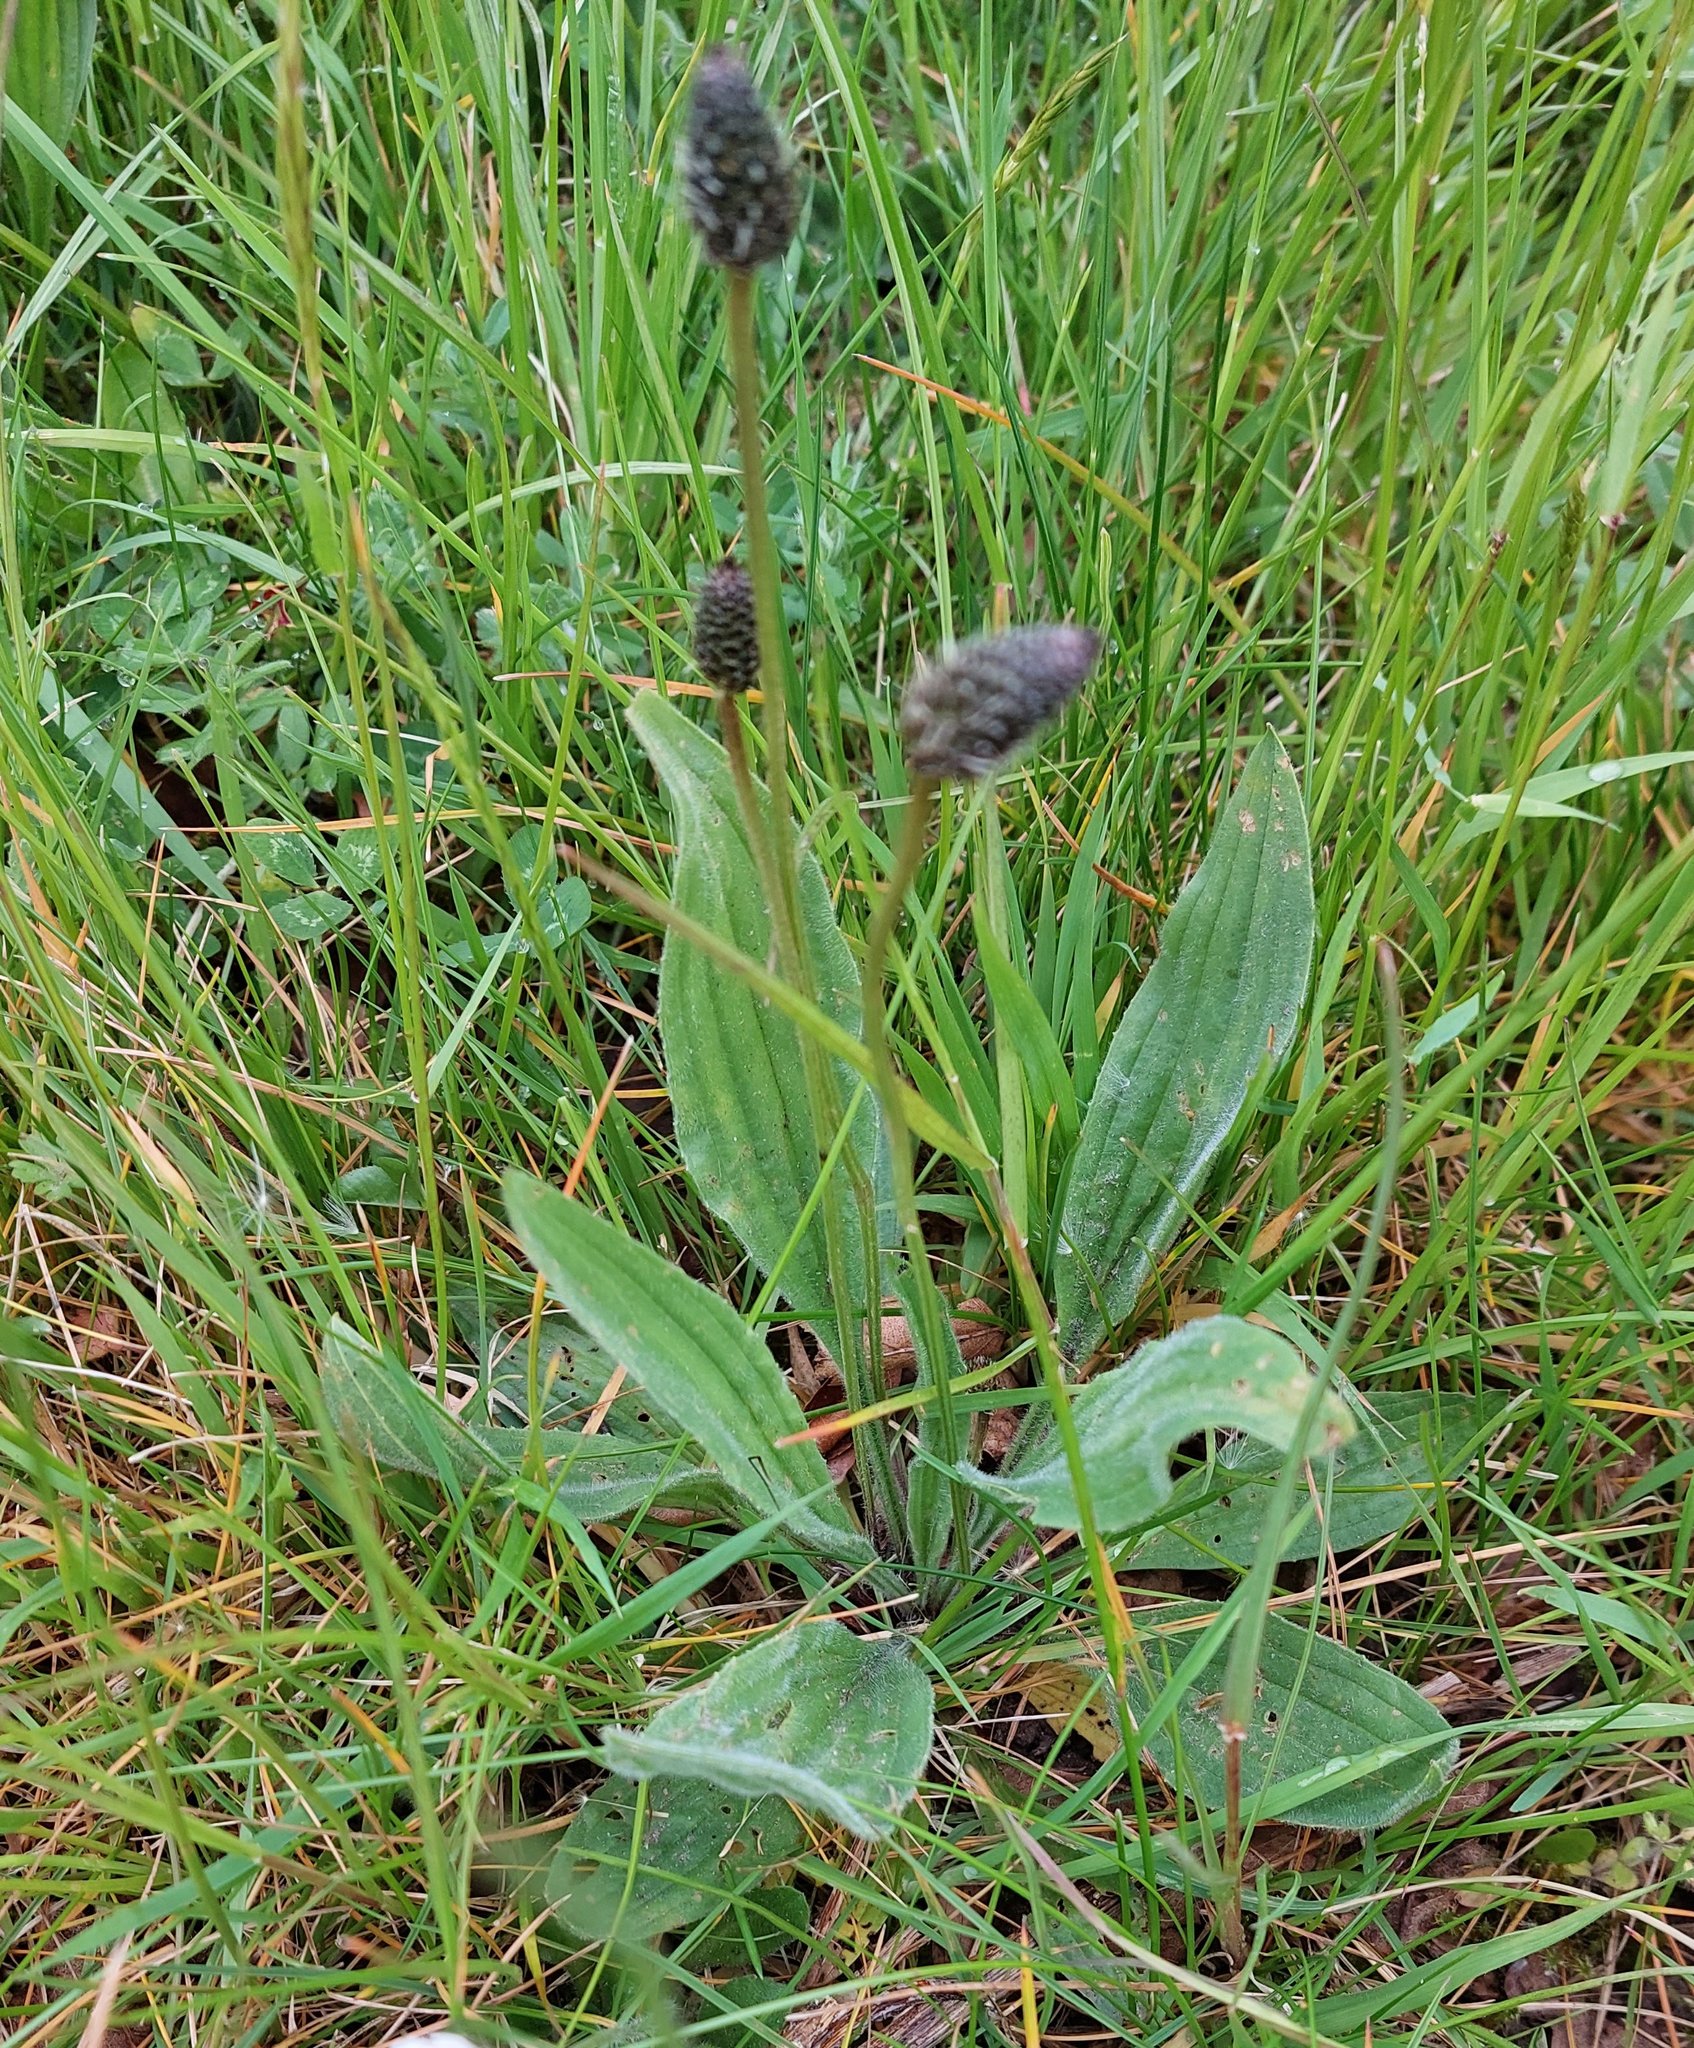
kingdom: Plantae
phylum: Tracheophyta
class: Magnoliopsida
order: Lamiales
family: Plantaginaceae
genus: Plantago
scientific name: Plantago lanceolata
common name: Ribwort plantain
